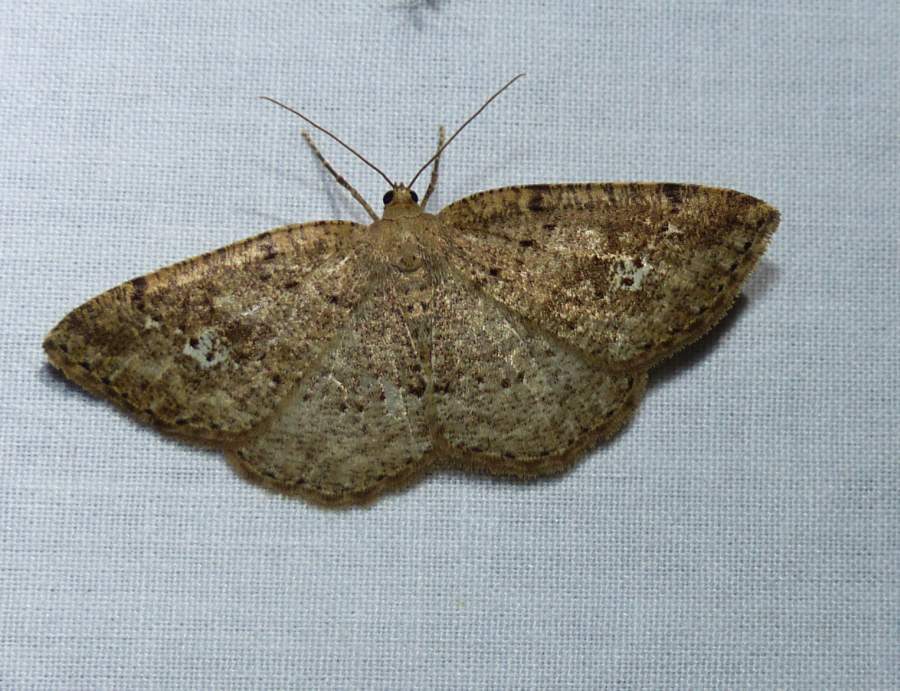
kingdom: Animalia
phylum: Arthropoda
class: Insecta
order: Lepidoptera
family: Geometridae
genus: Homochlodes
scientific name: Homochlodes fritillaria
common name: Pale homochlodes
